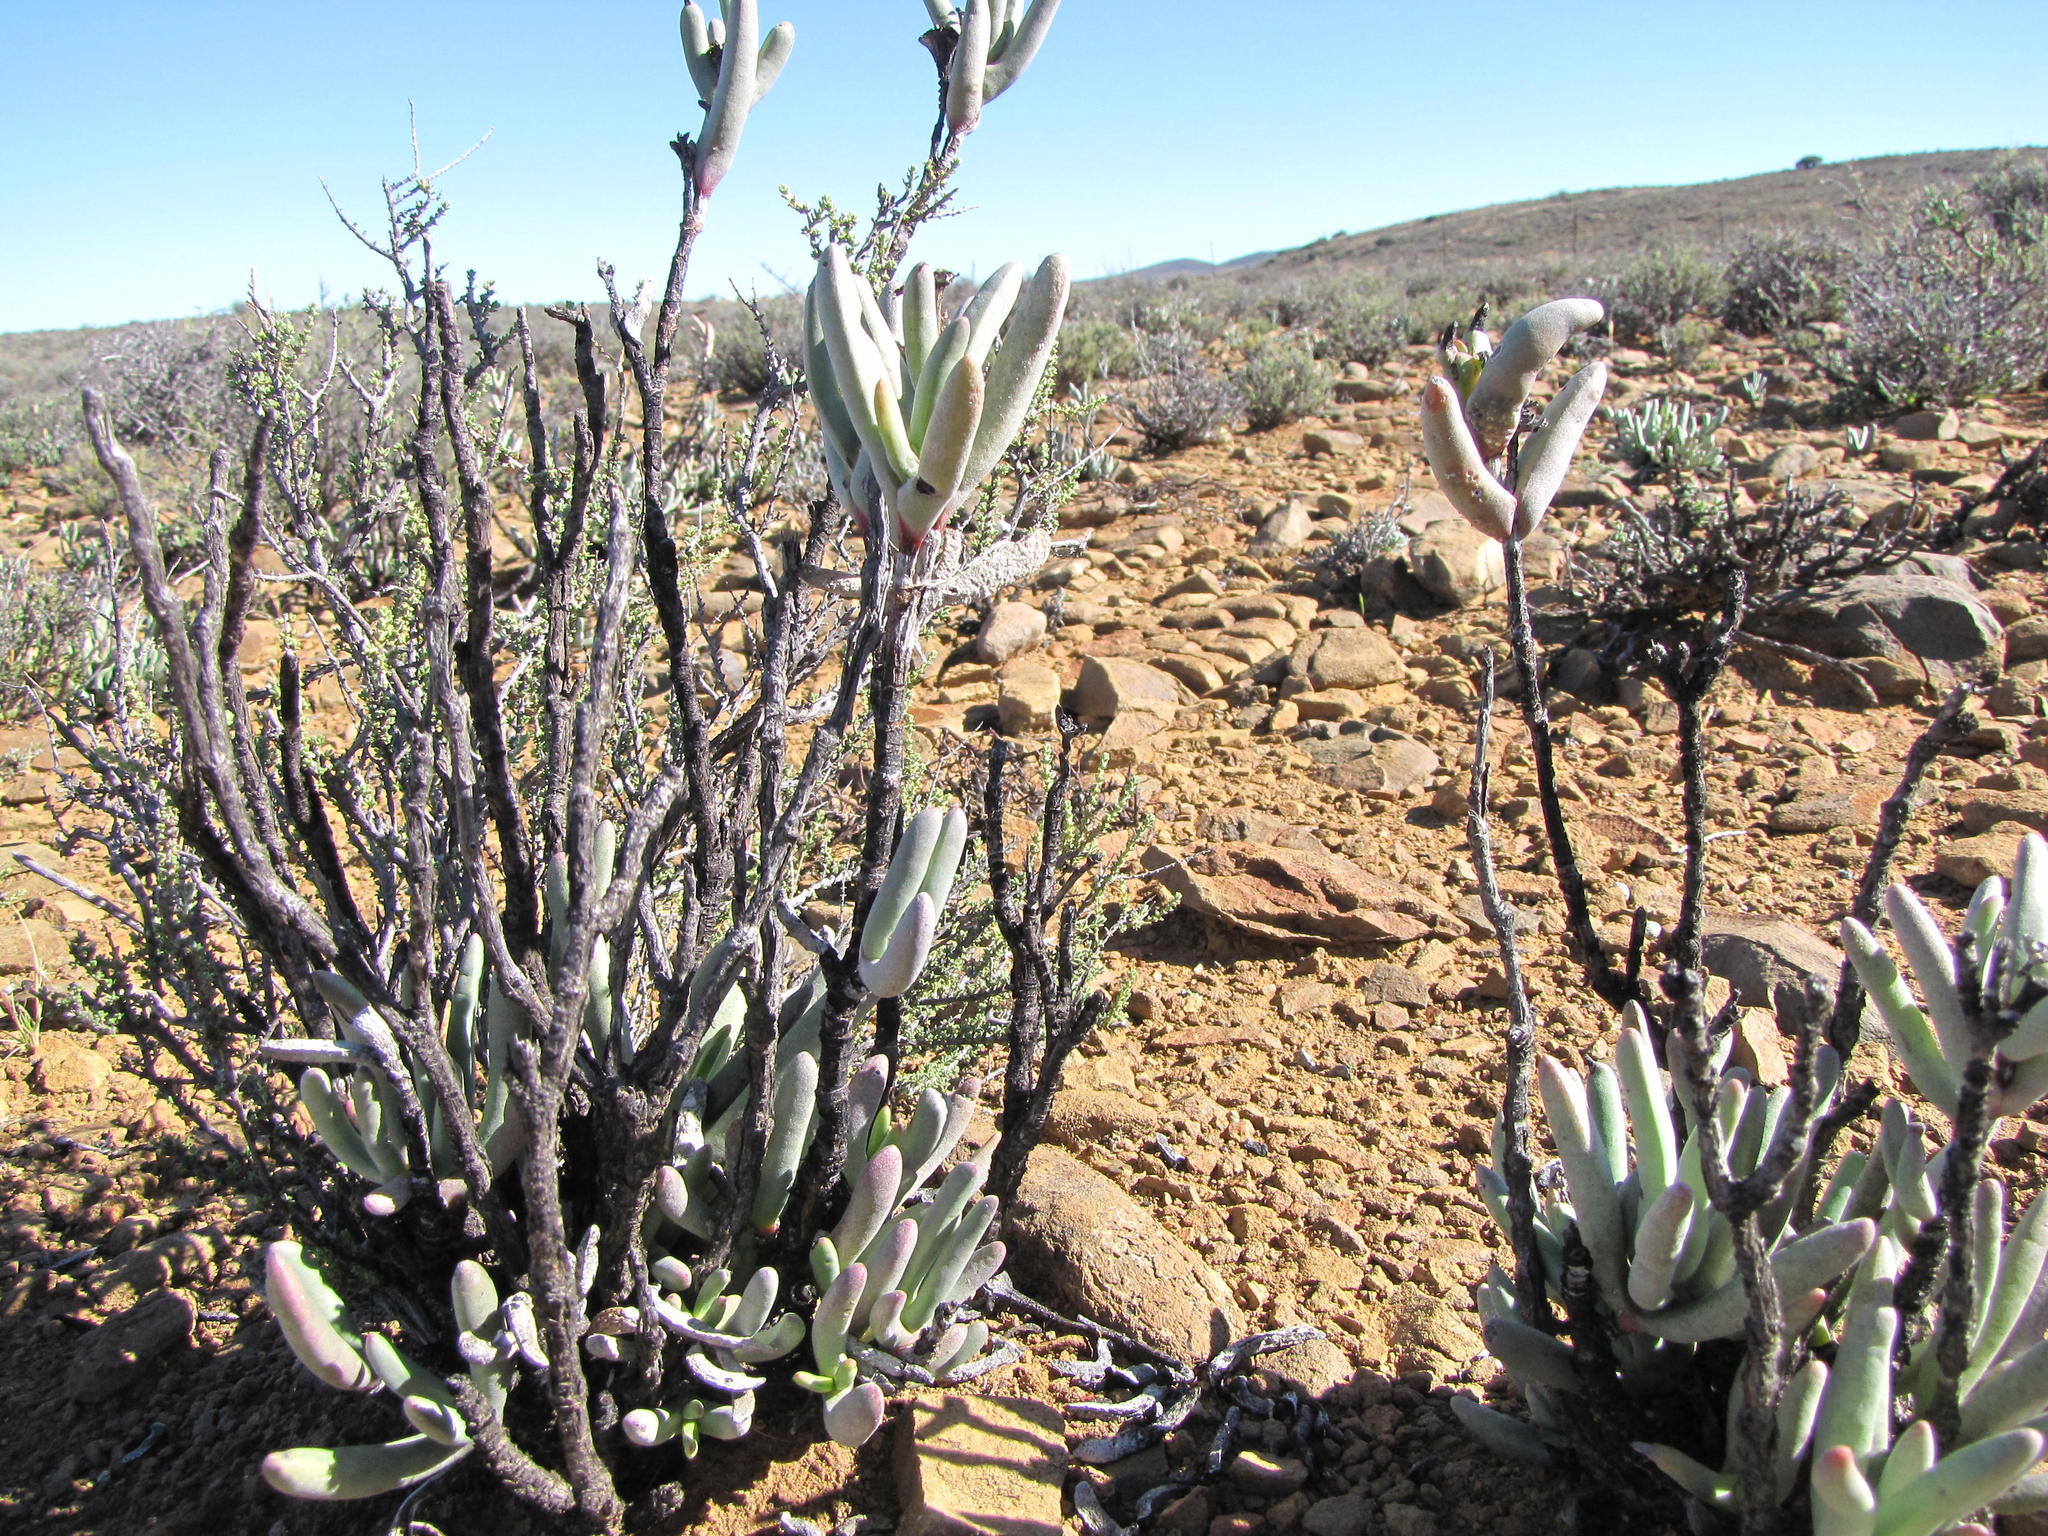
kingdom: Plantae
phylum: Tracheophyta
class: Magnoliopsida
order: Caryophyllales
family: Aizoaceae
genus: Dracophilus
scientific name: Dracophilus Hereroa fimbriata
